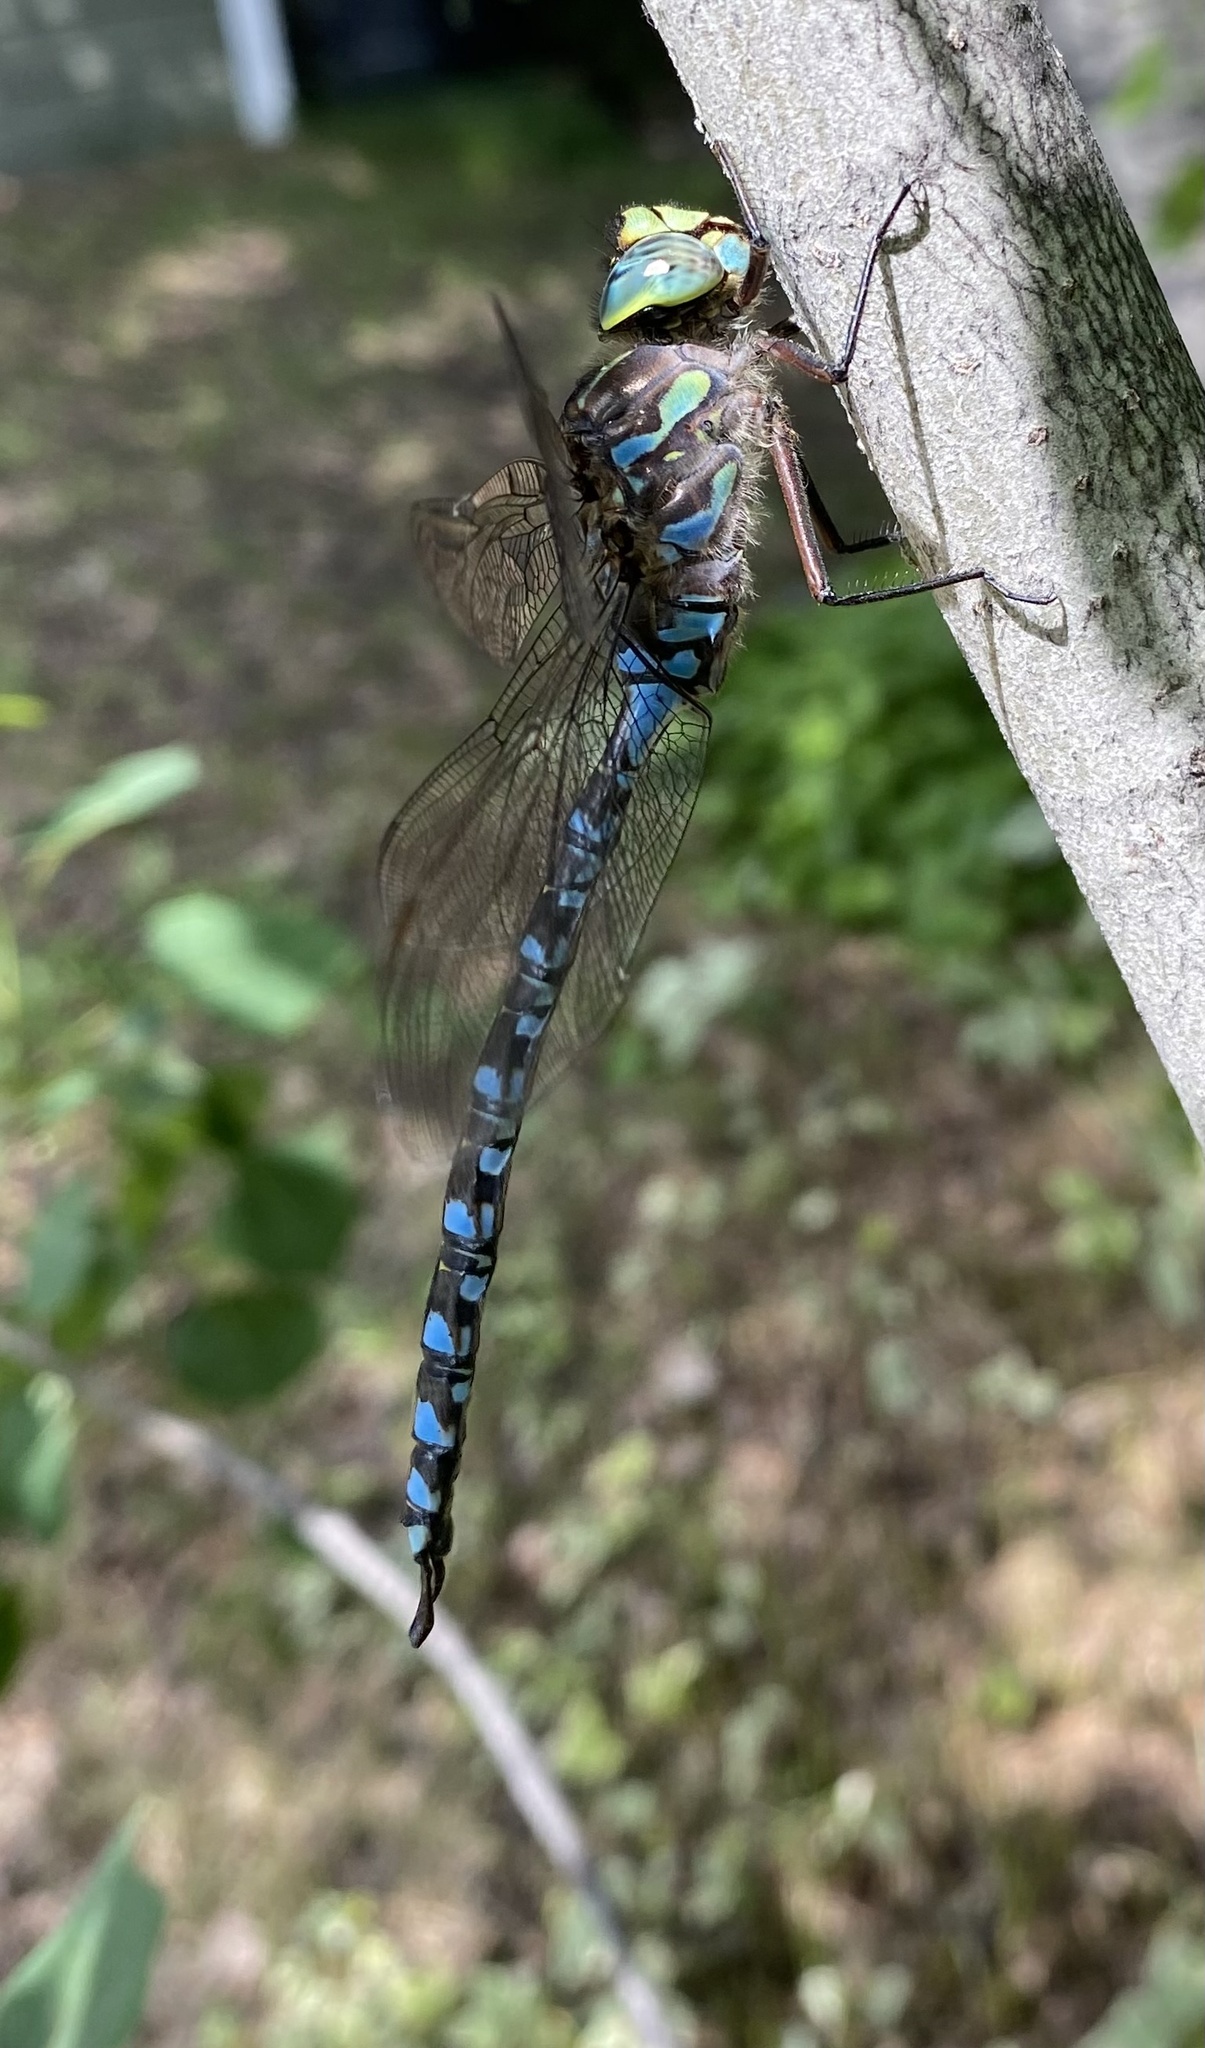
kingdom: Animalia
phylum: Arthropoda
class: Insecta
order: Odonata
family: Aeshnidae
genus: Aeshna
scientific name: Aeshna eremita
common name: Lake darner
